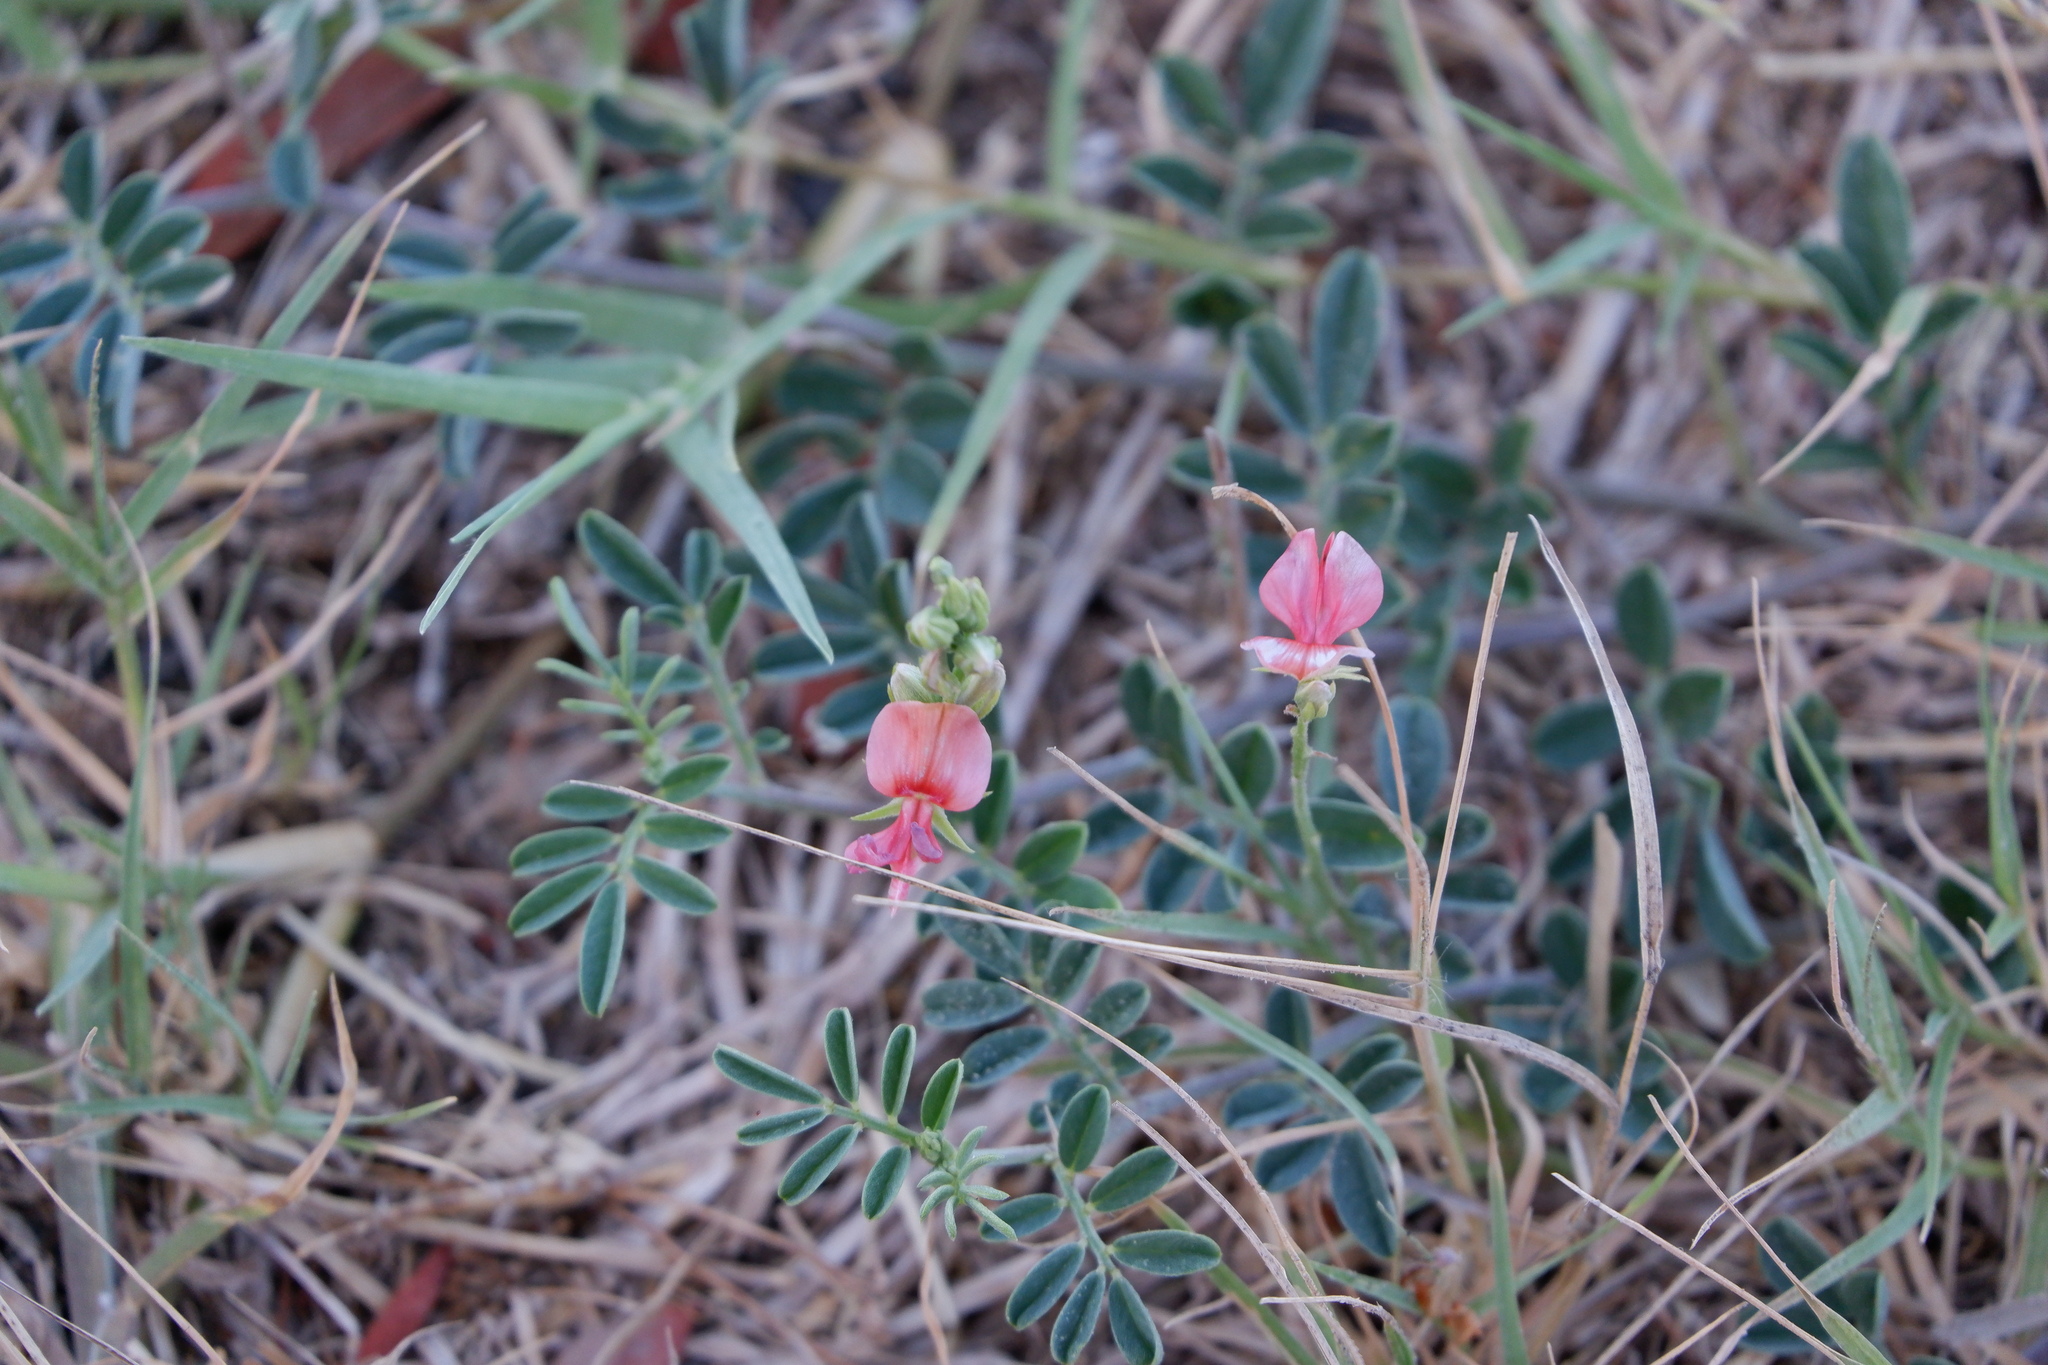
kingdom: Plantae
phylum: Tracheophyta
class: Magnoliopsida
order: Fabales
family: Fabaceae
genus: Indigofera
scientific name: Indigofera miniata
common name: Coast indigo
